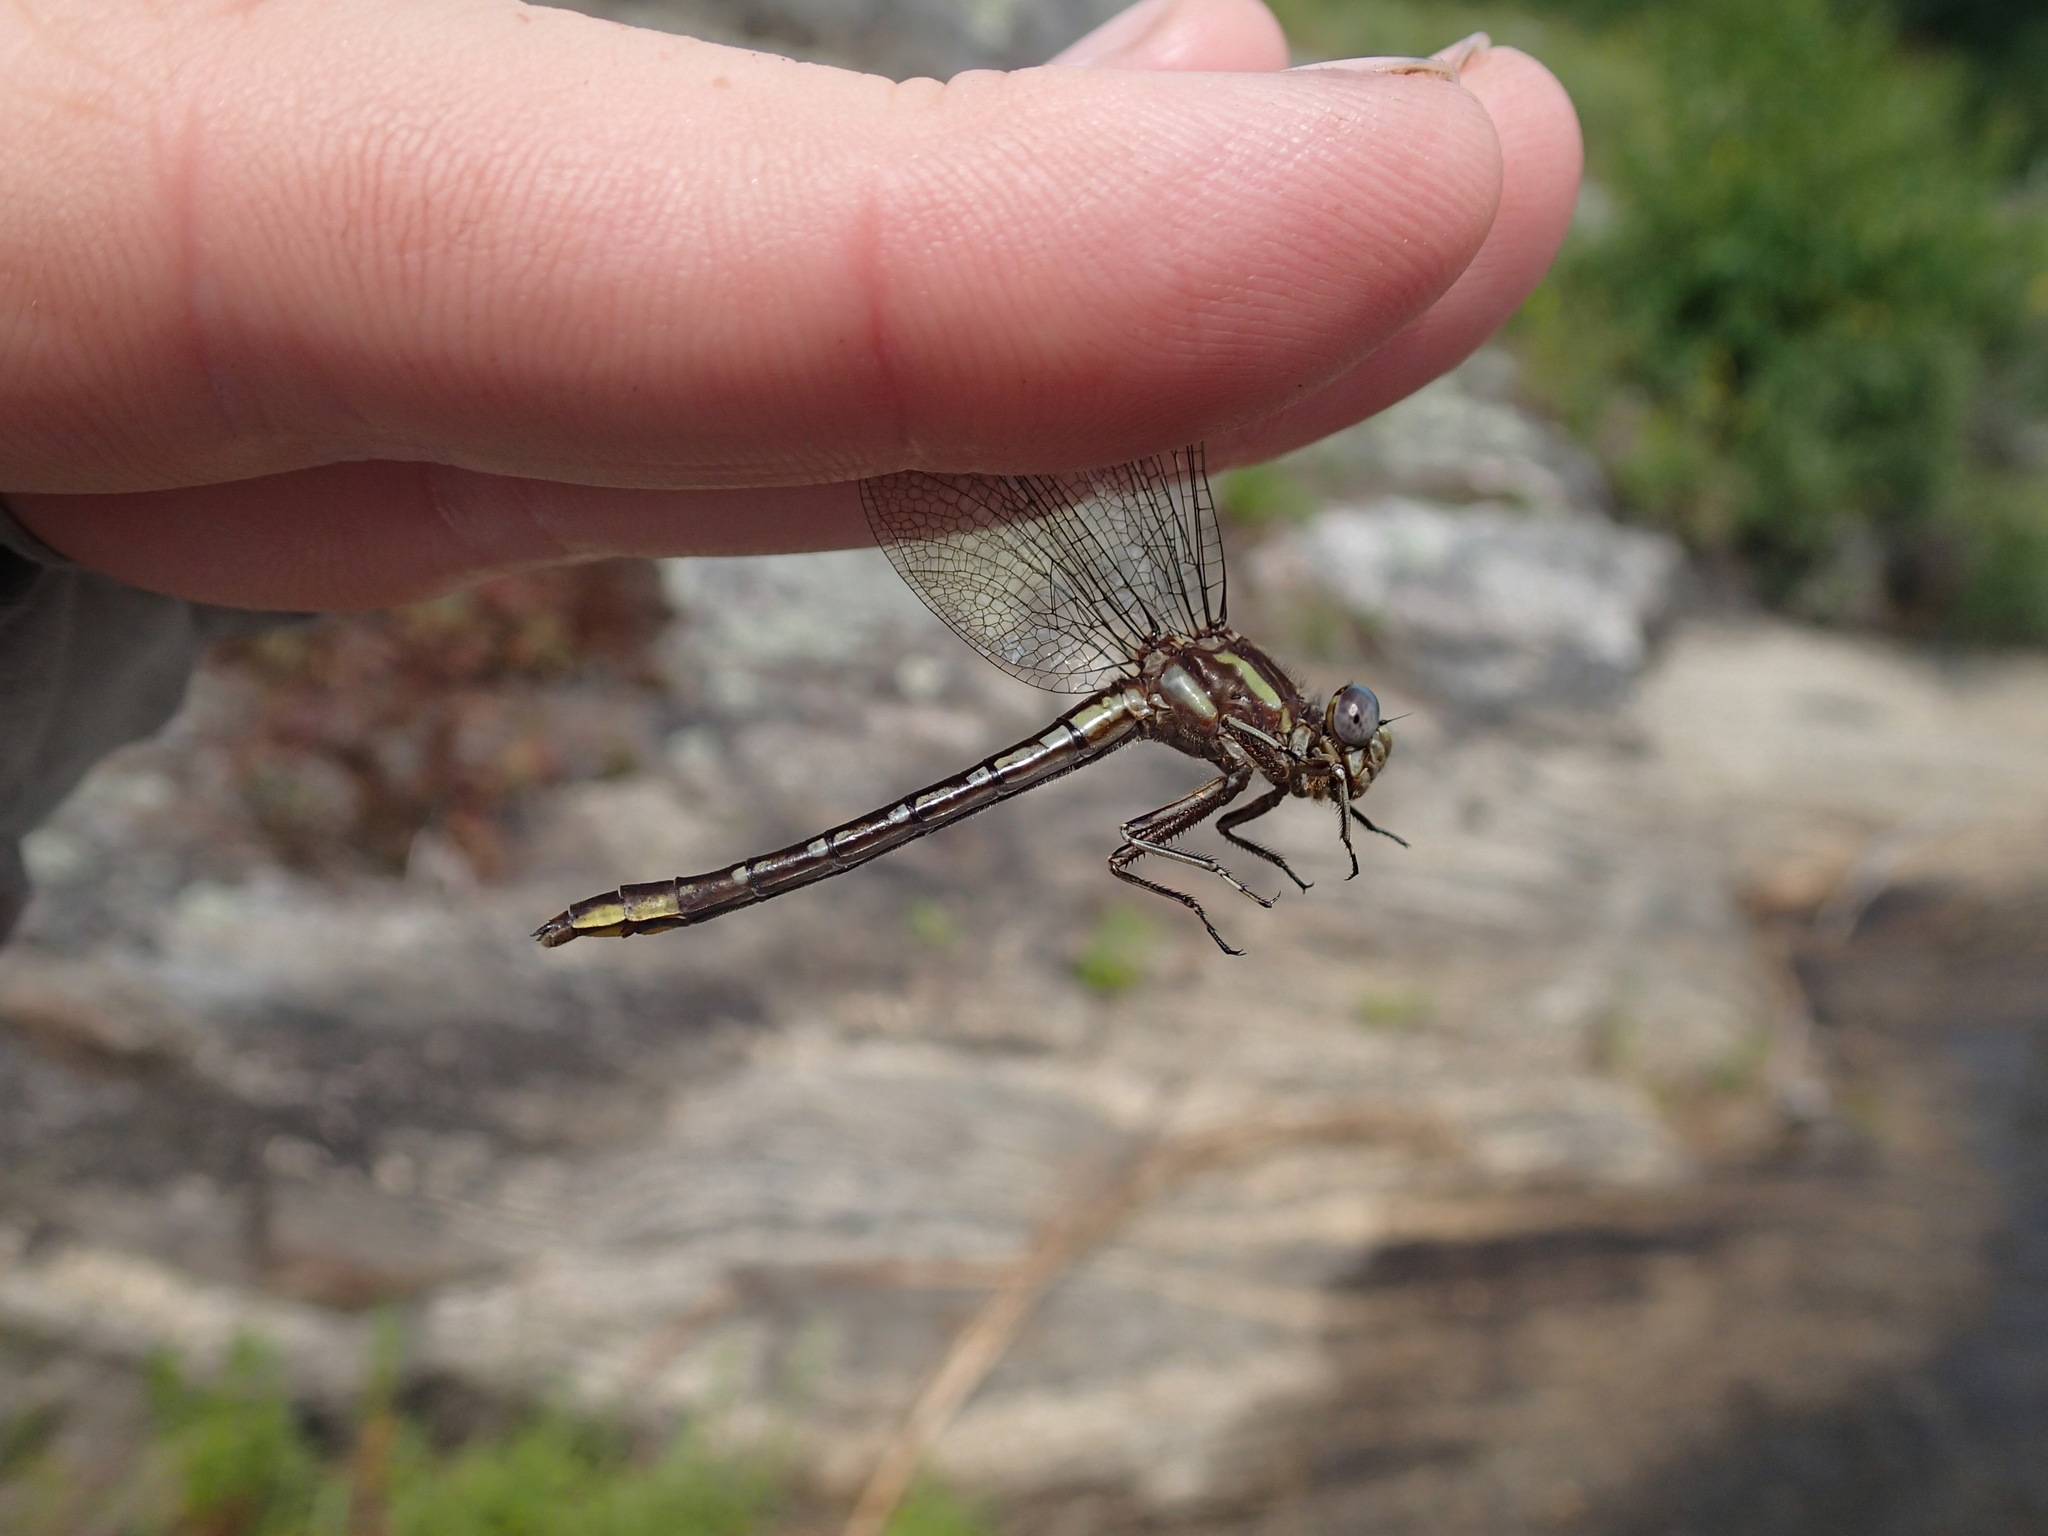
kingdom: Animalia
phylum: Arthropoda
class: Insecta
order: Odonata
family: Gomphidae
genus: Phanogomphus
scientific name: Phanogomphus exilis
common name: Lancet clubtail
